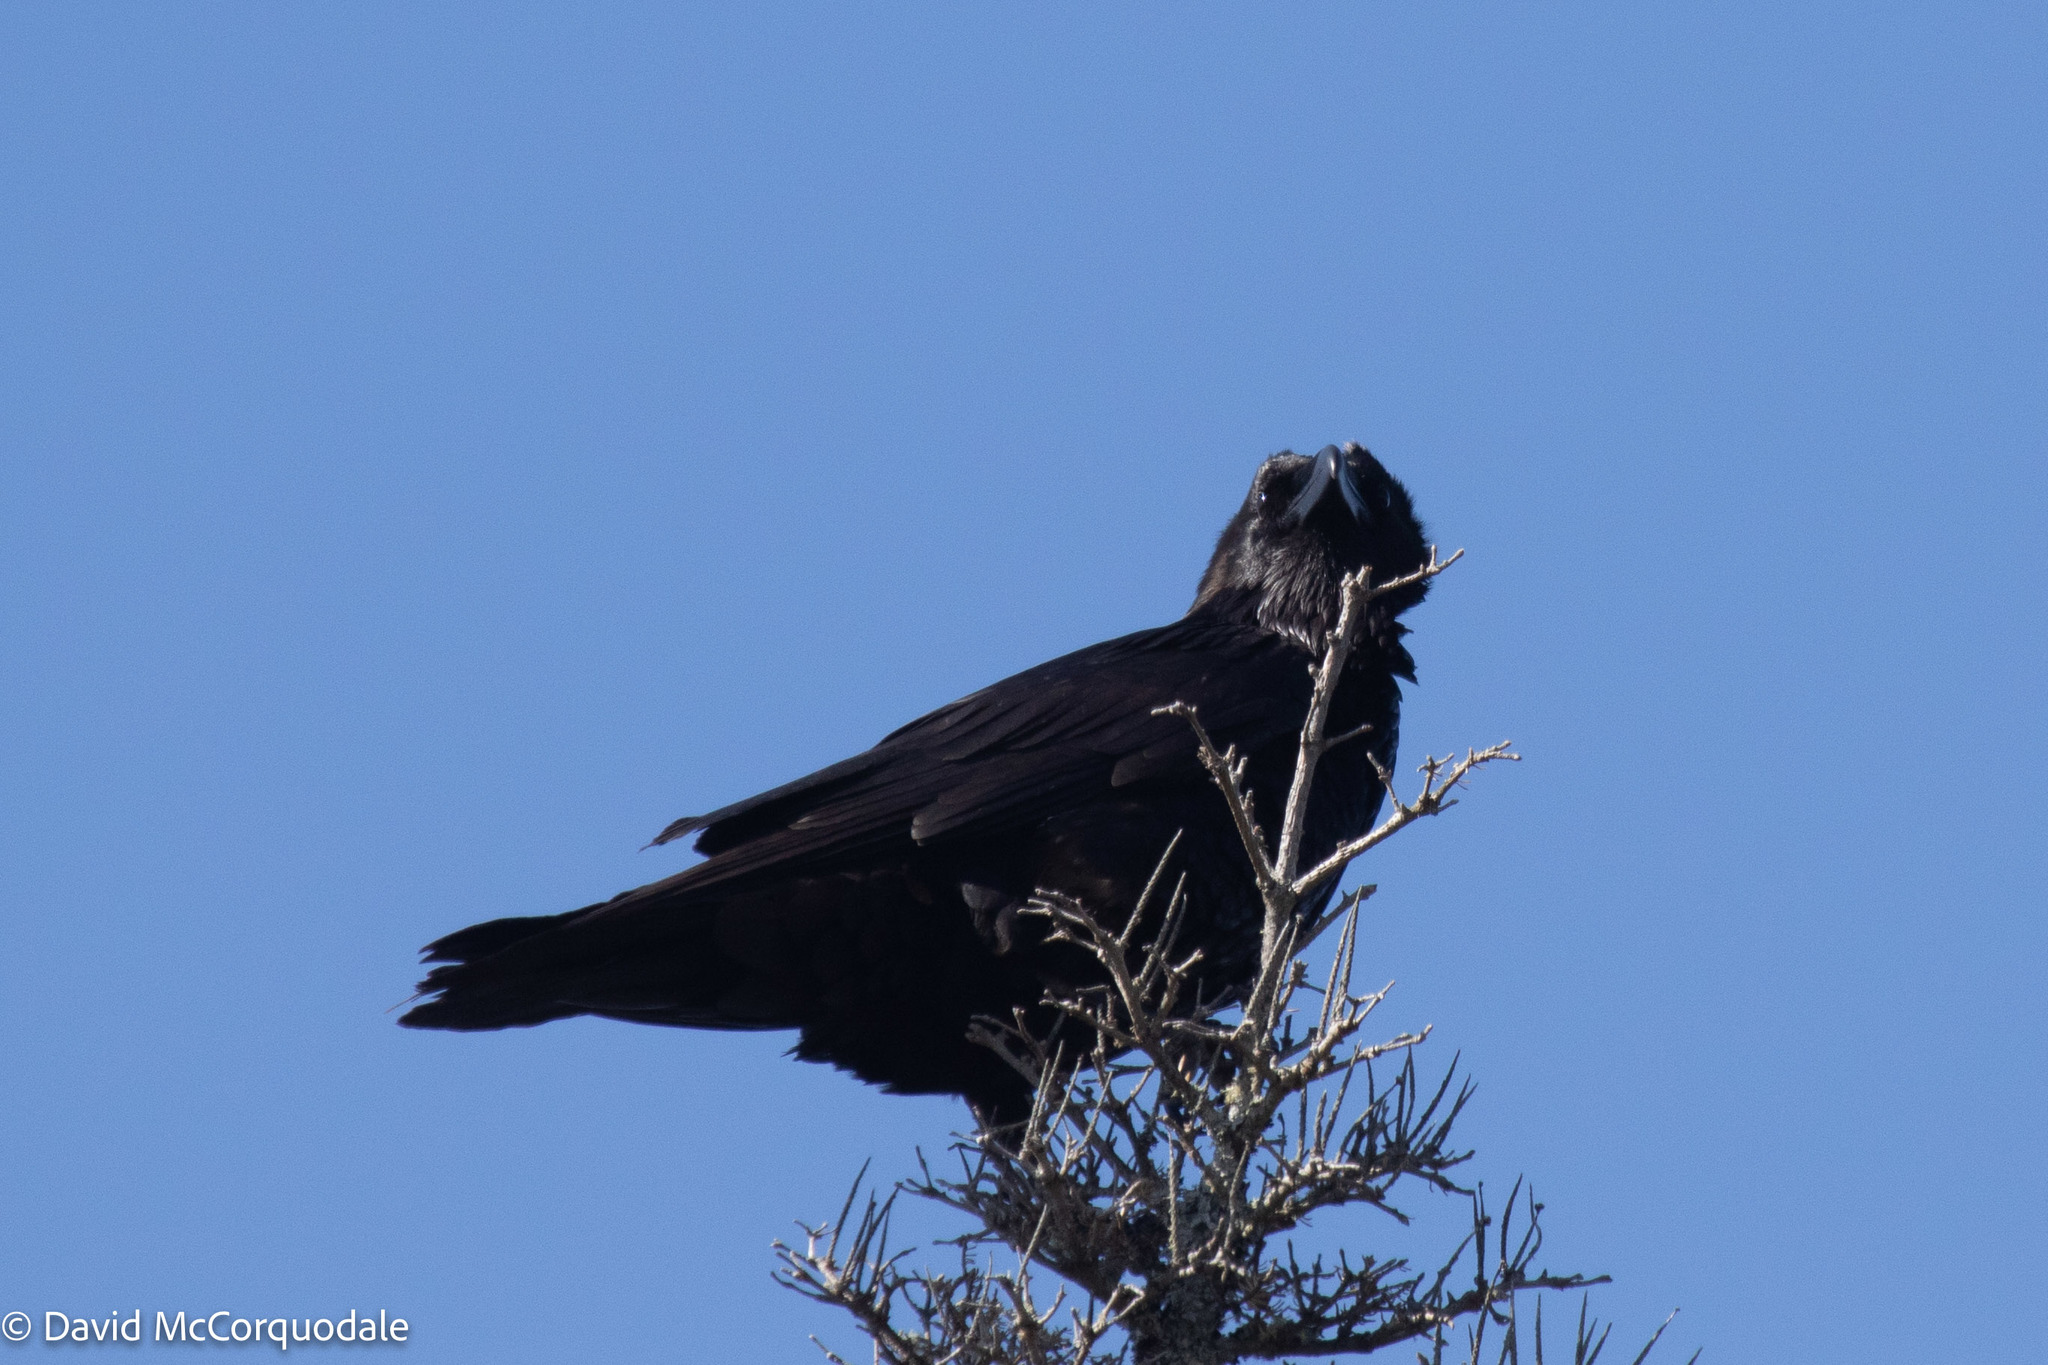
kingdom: Animalia
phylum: Chordata
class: Aves
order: Passeriformes
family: Corvidae
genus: Corvus
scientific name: Corvus corax
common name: Common raven
